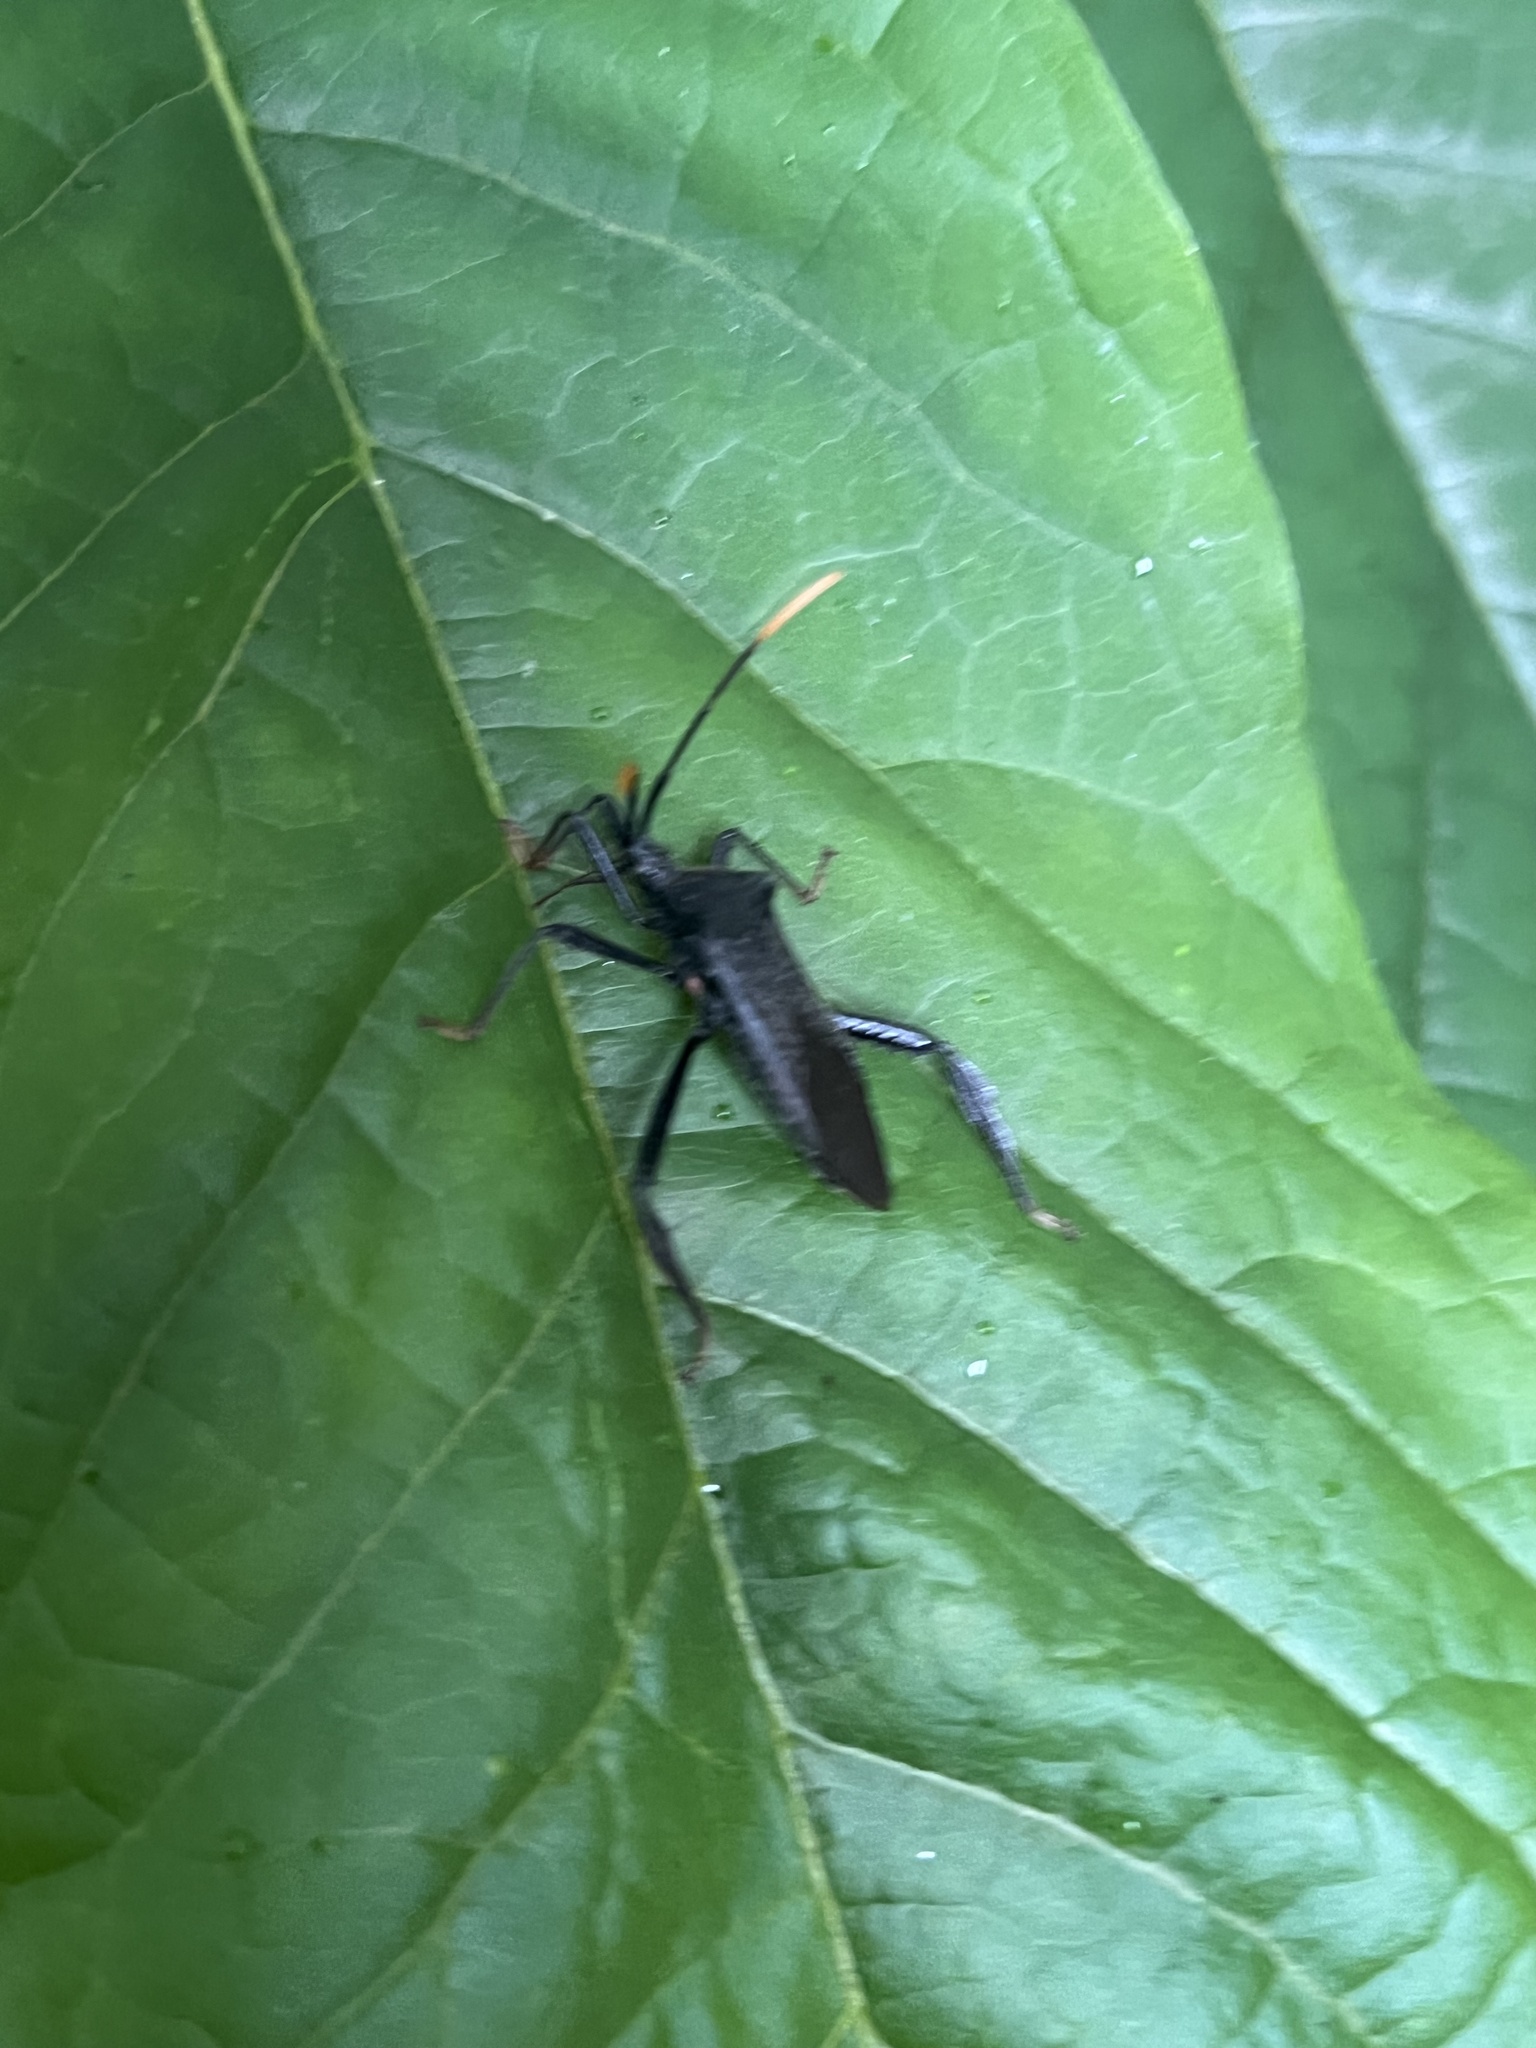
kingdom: Animalia
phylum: Arthropoda
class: Insecta
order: Hemiptera
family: Coreidae
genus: Acanthocephala
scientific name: Acanthocephala terminalis
